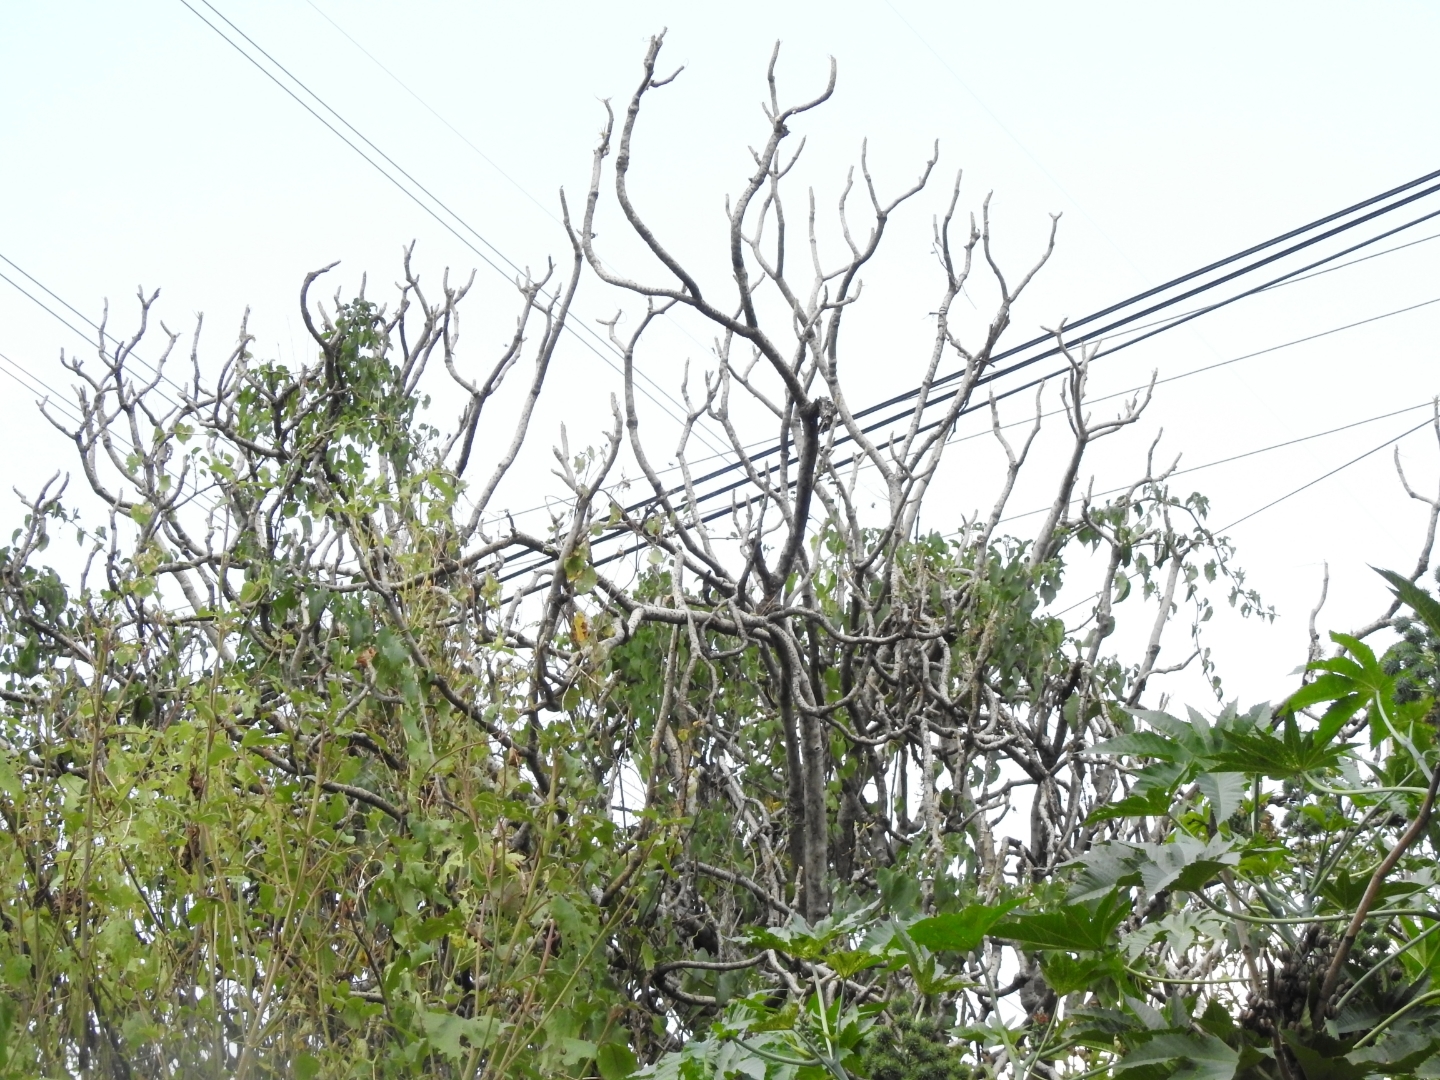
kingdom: Plantae
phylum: Tracheophyta
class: Magnoliopsida
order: Asterales
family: Asteraceae
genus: Pittocaulon
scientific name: Pittocaulon praecox
